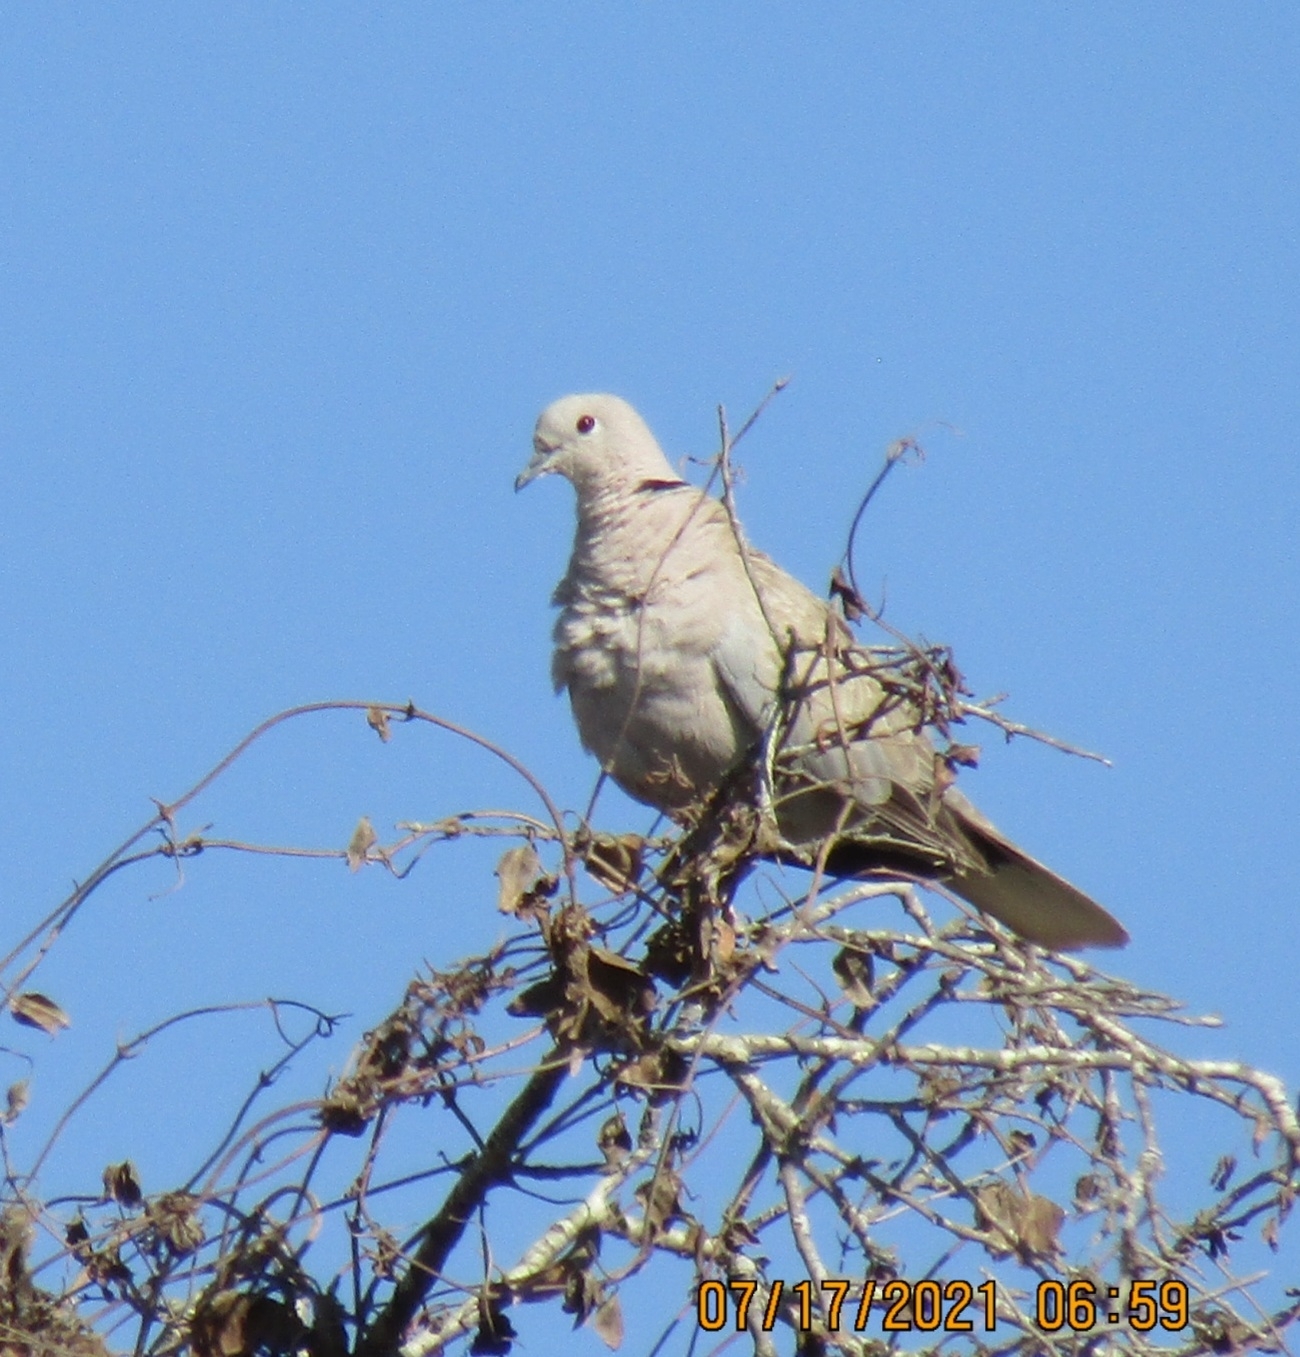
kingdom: Animalia
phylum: Chordata
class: Aves
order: Columbiformes
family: Columbidae
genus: Streptopelia
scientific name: Streptopelia decaocto
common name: Eurasian collared dove
